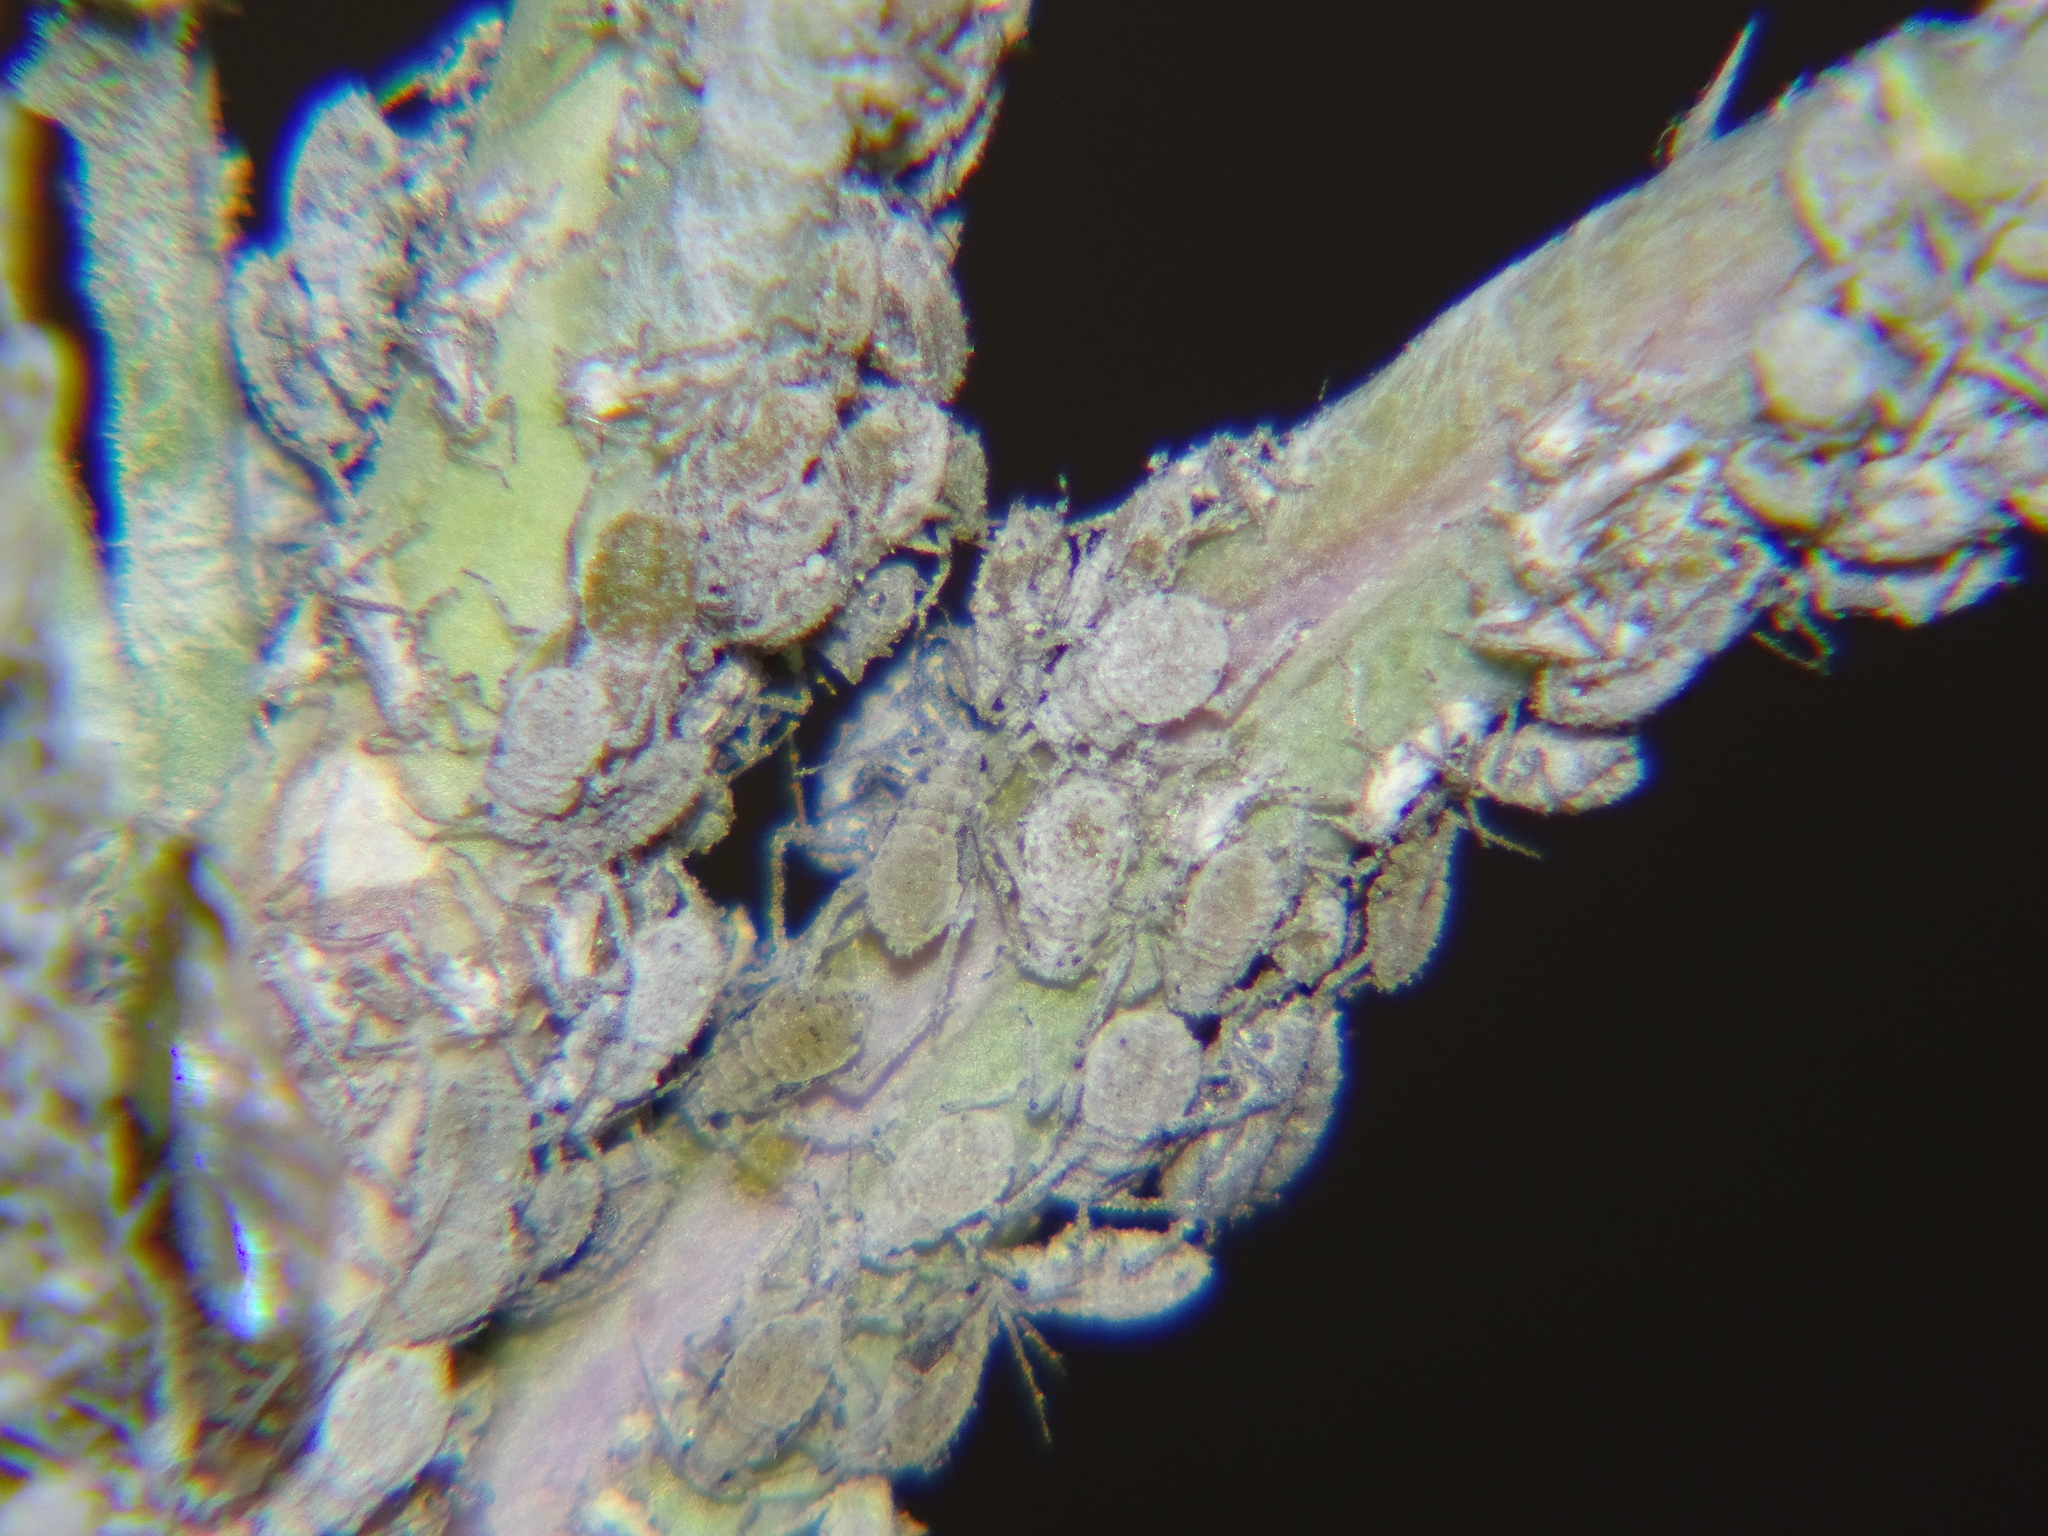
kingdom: Animalia
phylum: Arthropoda
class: Insecta
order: Hemiptera
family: Aphididae
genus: Brevicoryne
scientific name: Brevicoryne brassicae
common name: Cabbage aphid
